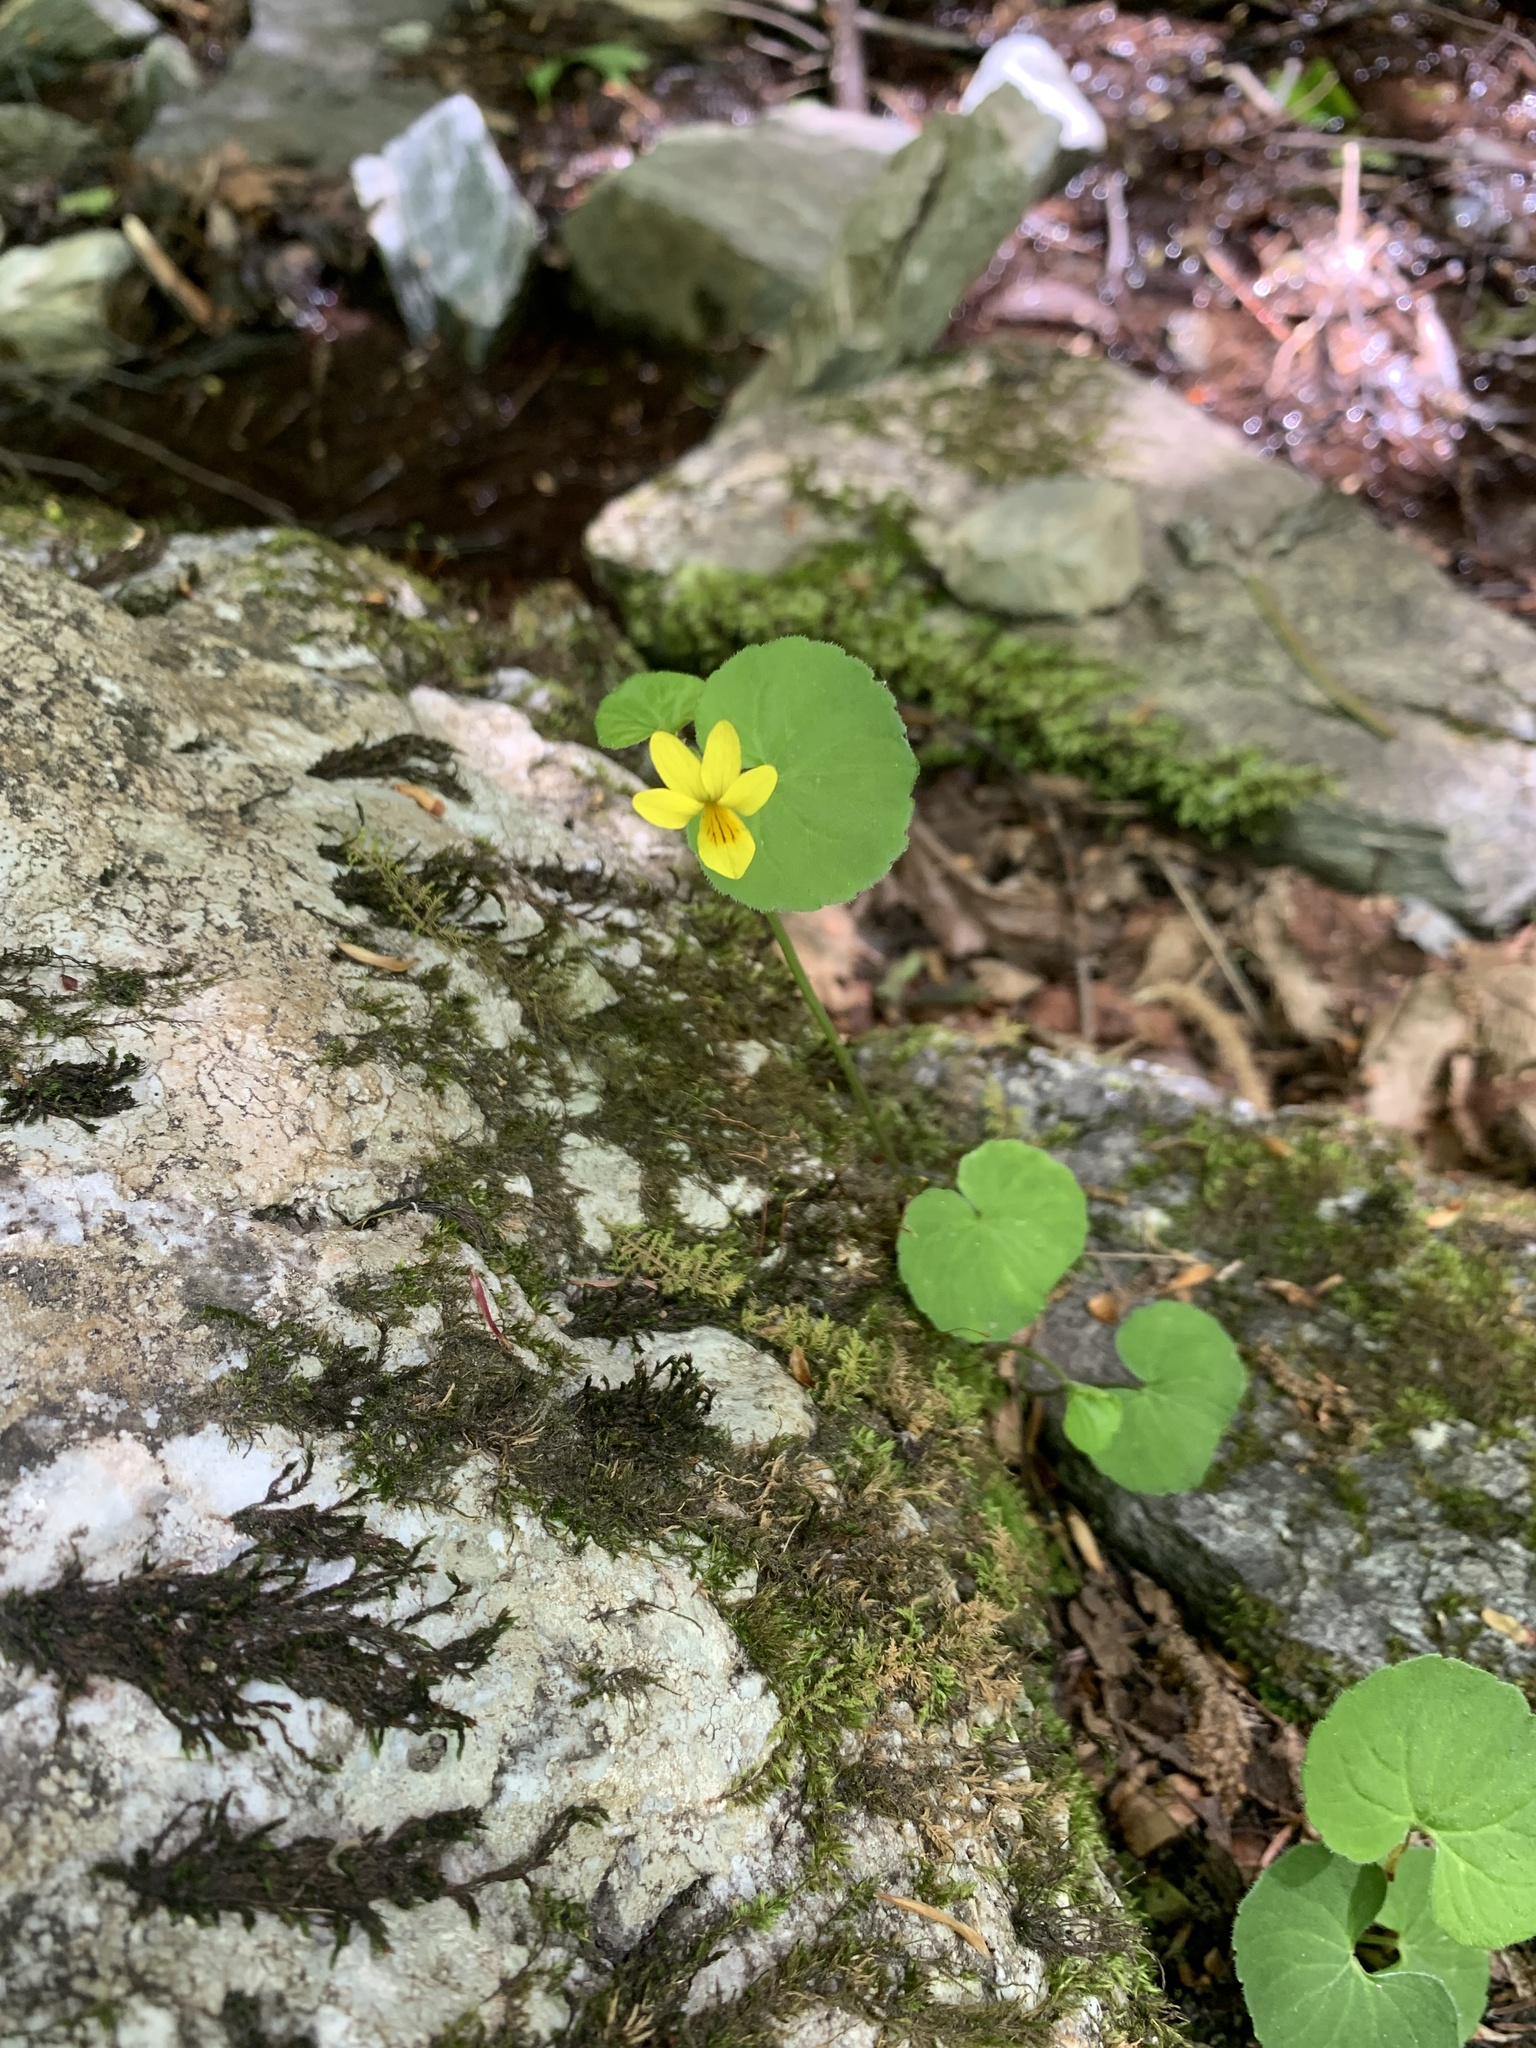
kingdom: Plantae
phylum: Tracheophyta
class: Magnoliopsida
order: Malpighiales
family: Violaceae
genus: Viola
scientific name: Viola biflora
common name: Alpine yellow violet
